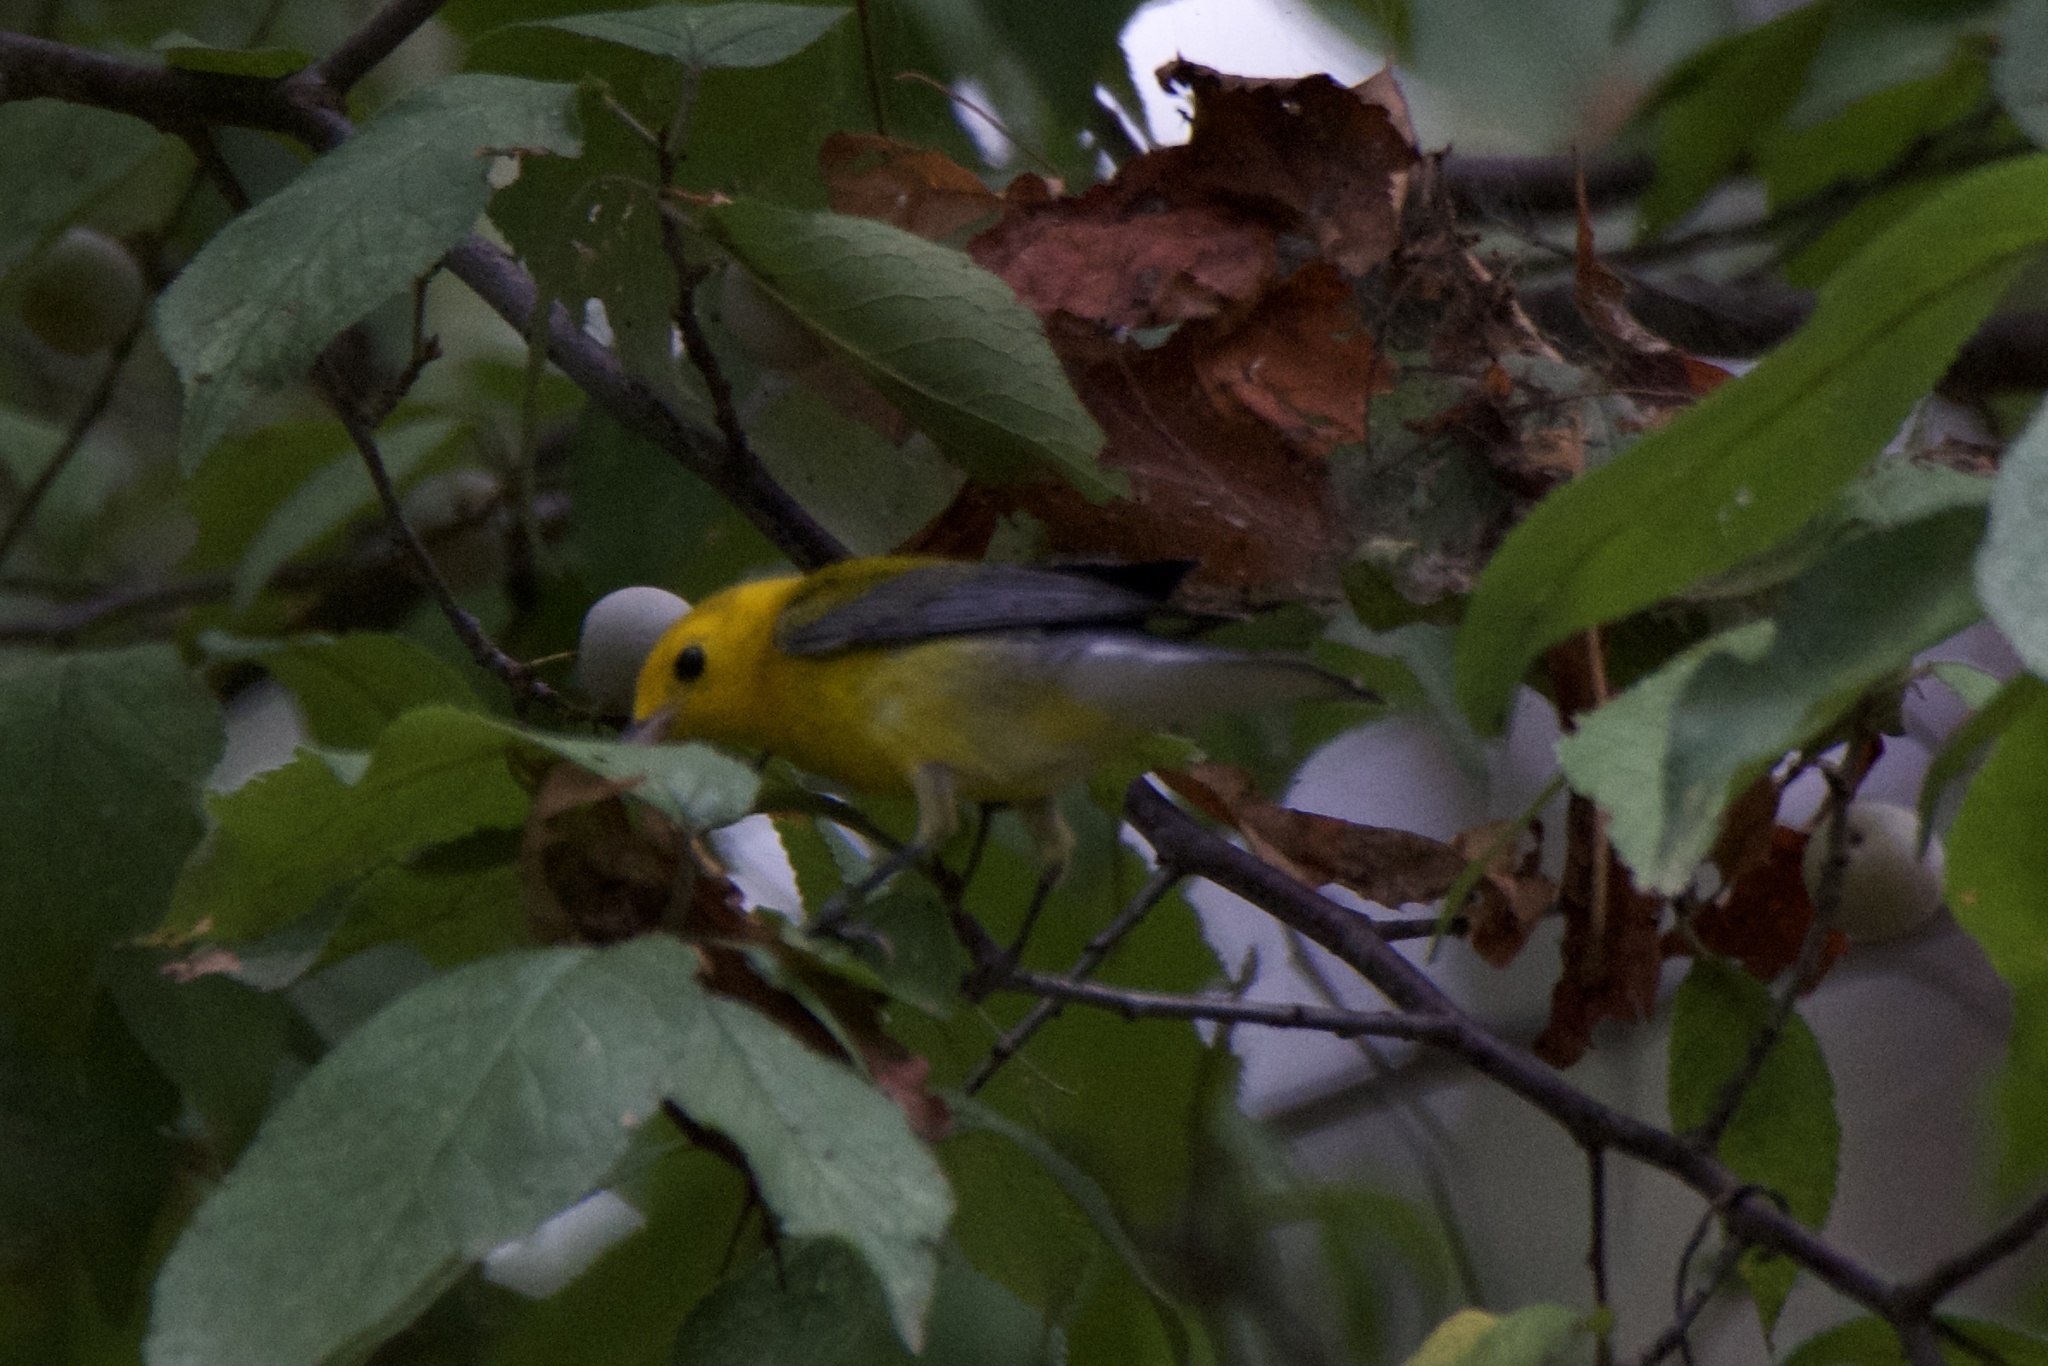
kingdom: Animalia
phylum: Chordata
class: Aves
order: Passeriformes
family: Parulidae
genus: Protonotaria
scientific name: Protonotaria citrea
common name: Prothonotary warbler
